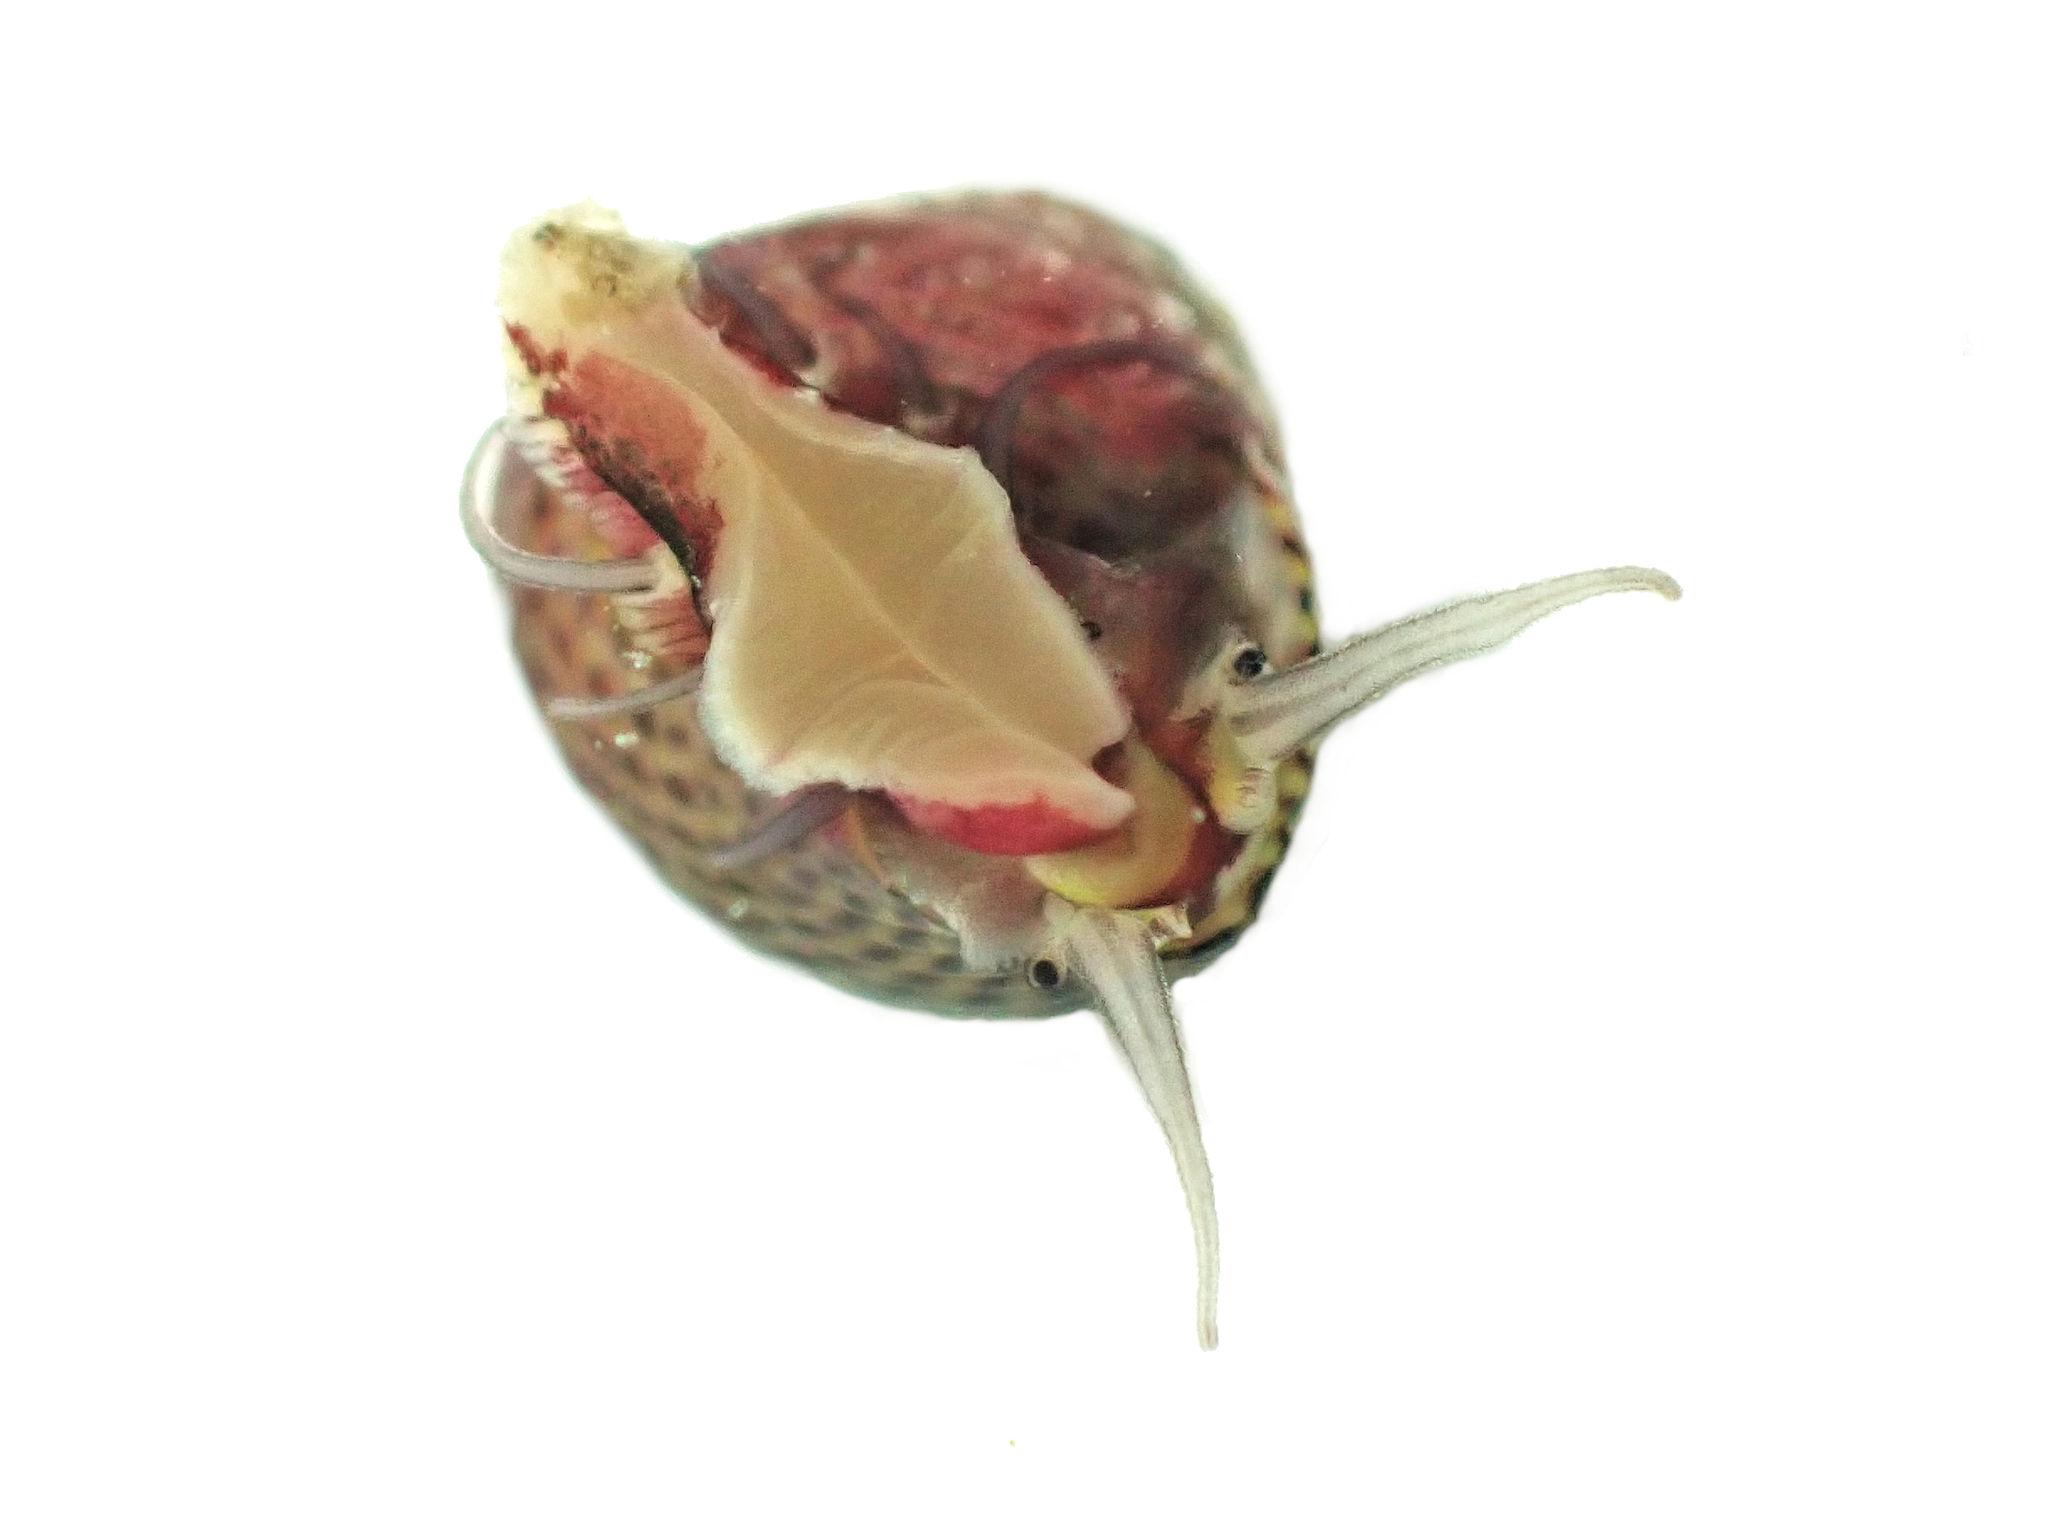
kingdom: Animalia
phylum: Mollusca
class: Gastropoda
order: Trochida
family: Trochidae
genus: Micrelenchus
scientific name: Micrelenchus sanguineus
